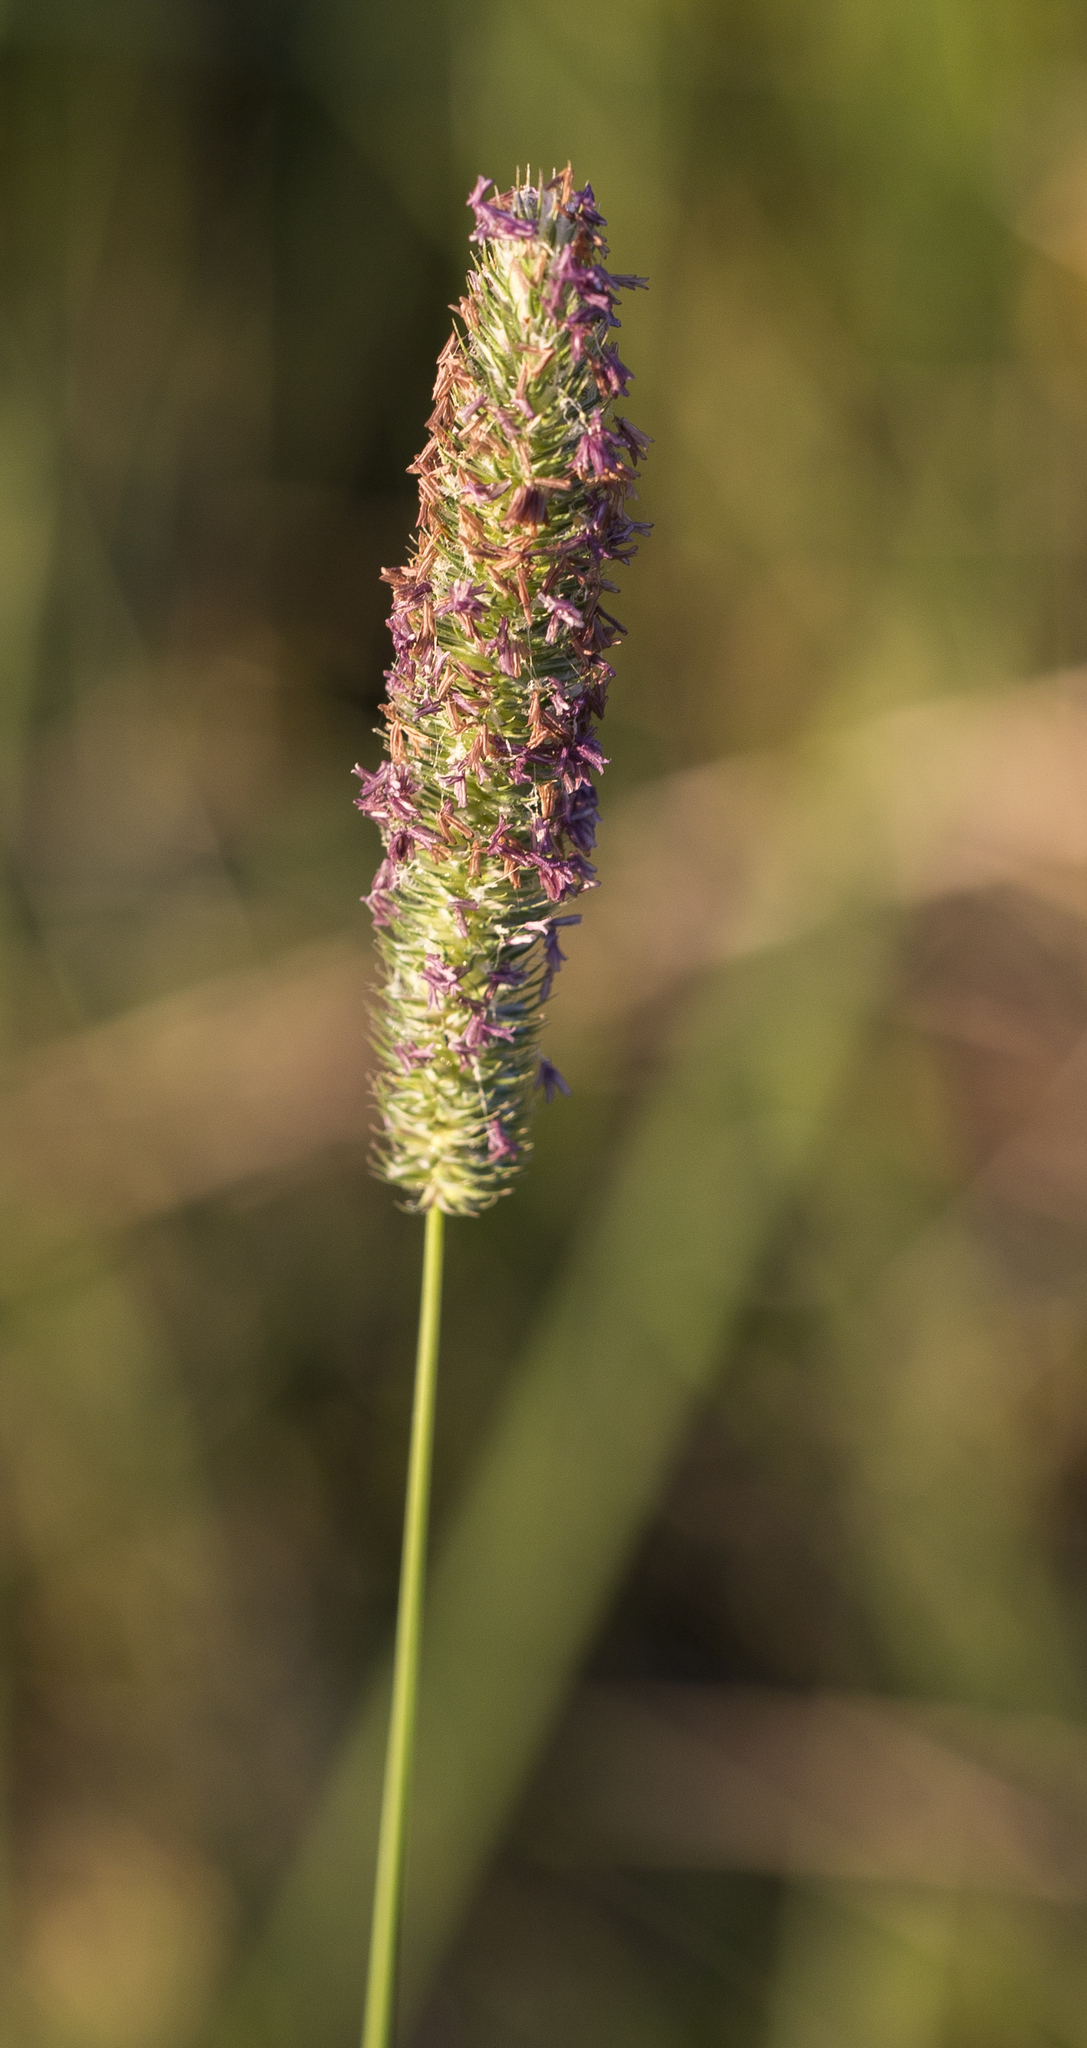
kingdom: Plantae
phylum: Tracheophyta
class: Liliopsida
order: Poales
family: Poaceae
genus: Phleum
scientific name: Phleum pratense
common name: Timothy grass
